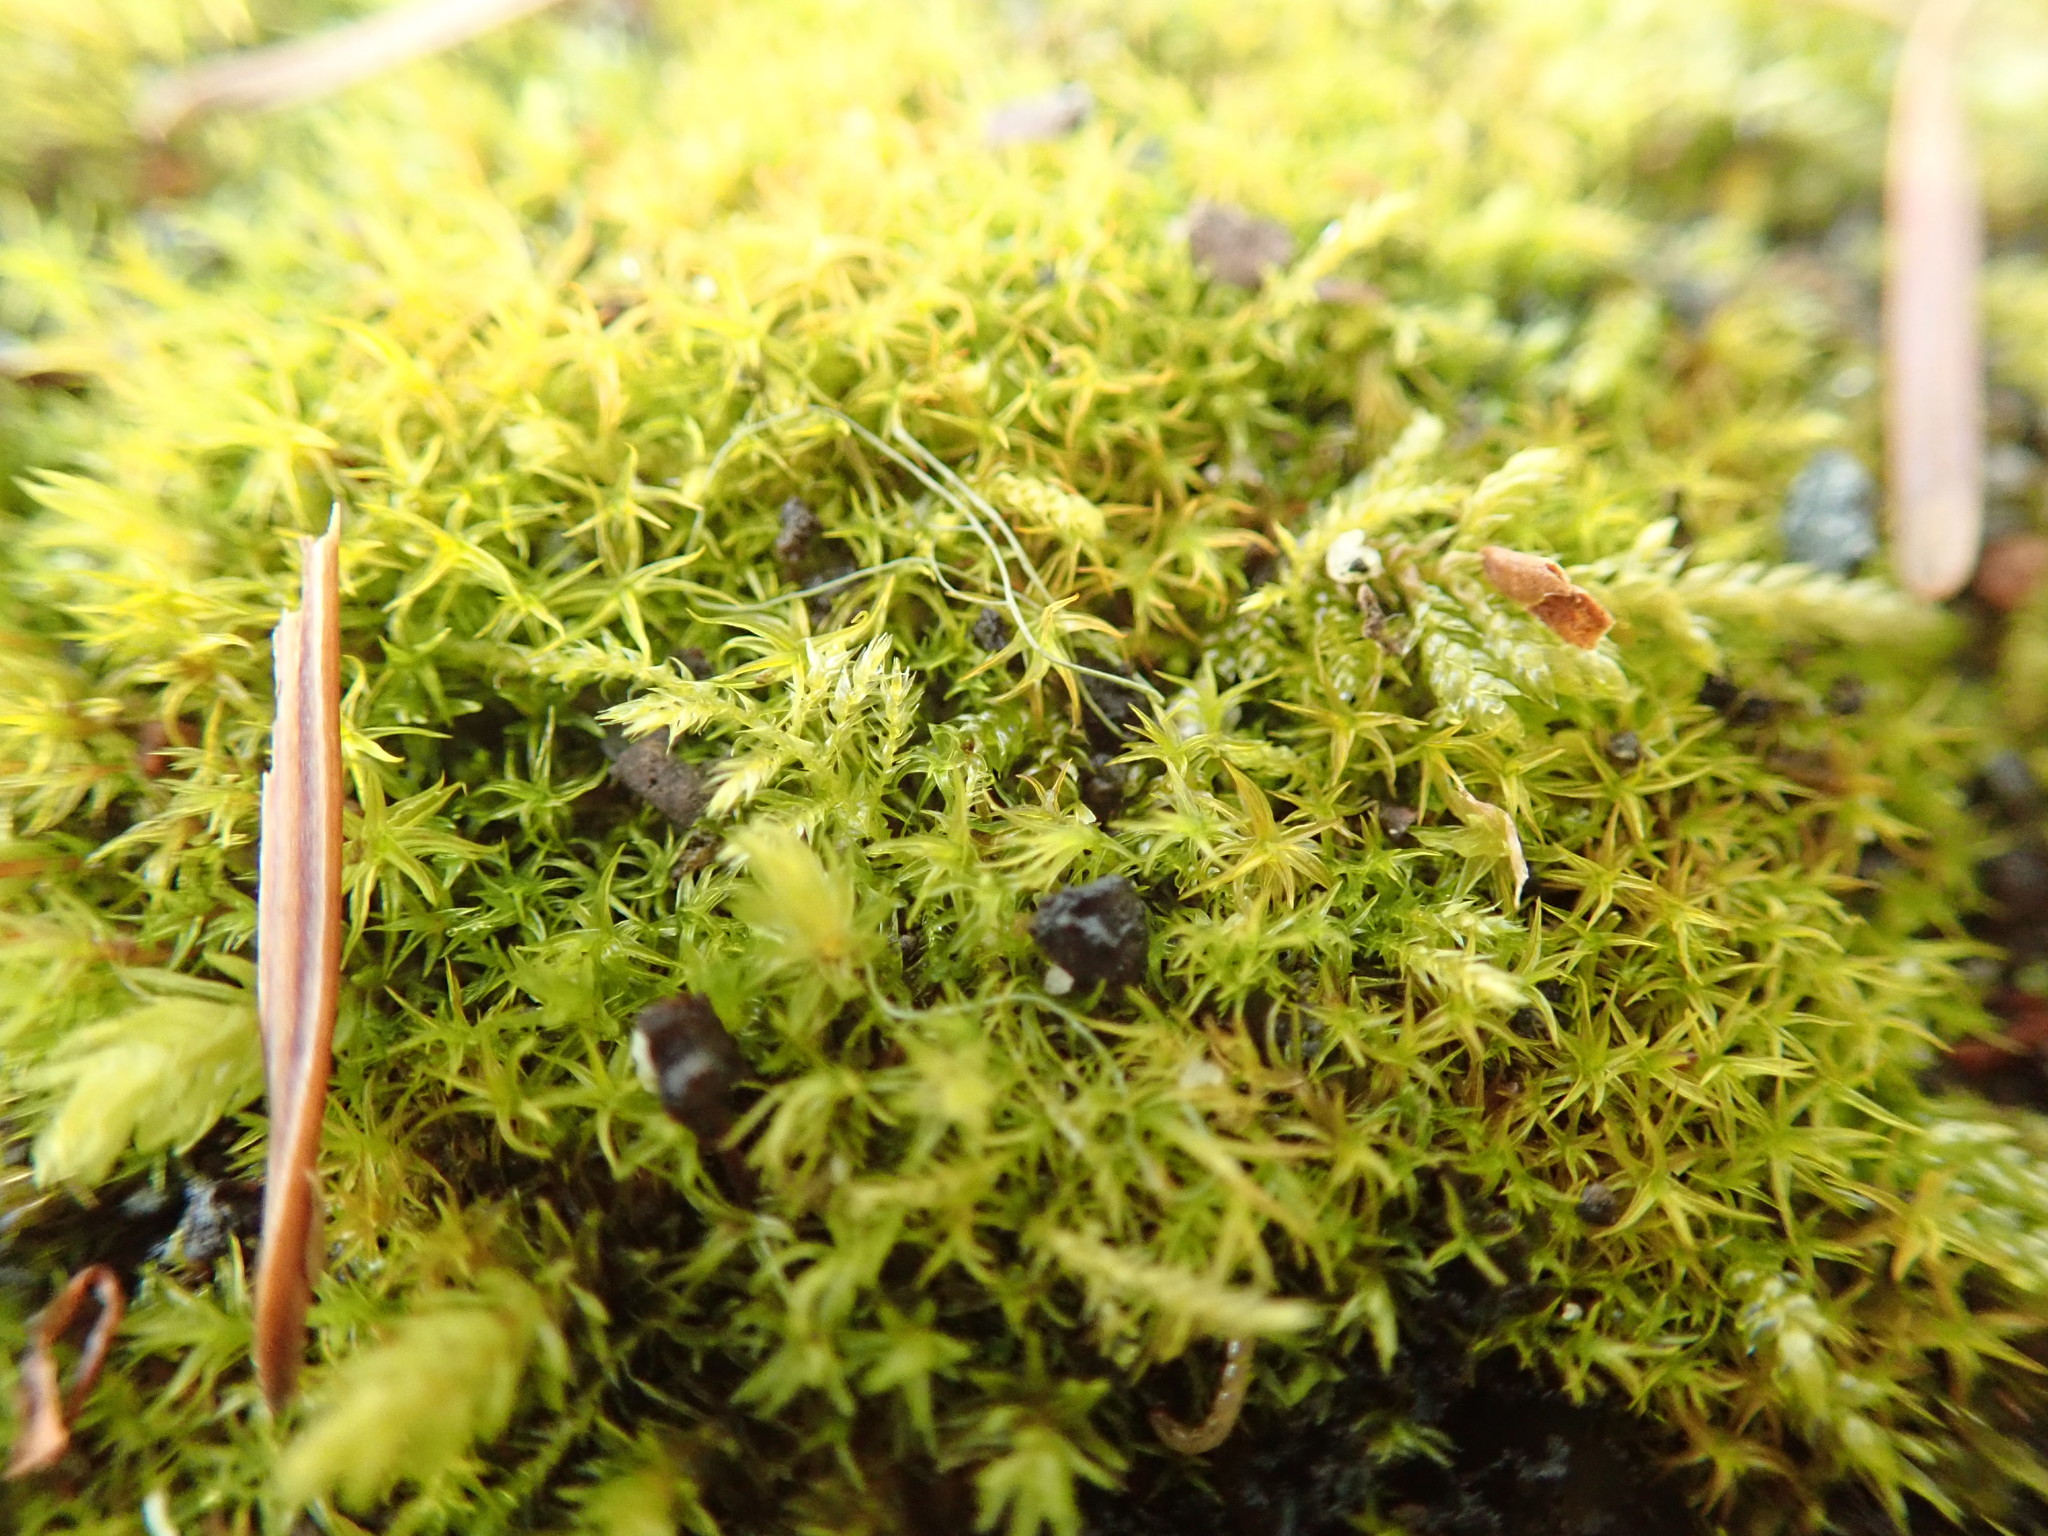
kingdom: Plantae
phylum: Bryophyta
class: Bryopsida
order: Pottiales
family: Pottiaceae
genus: Vinealobryum
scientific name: Vinealobryum vineale
